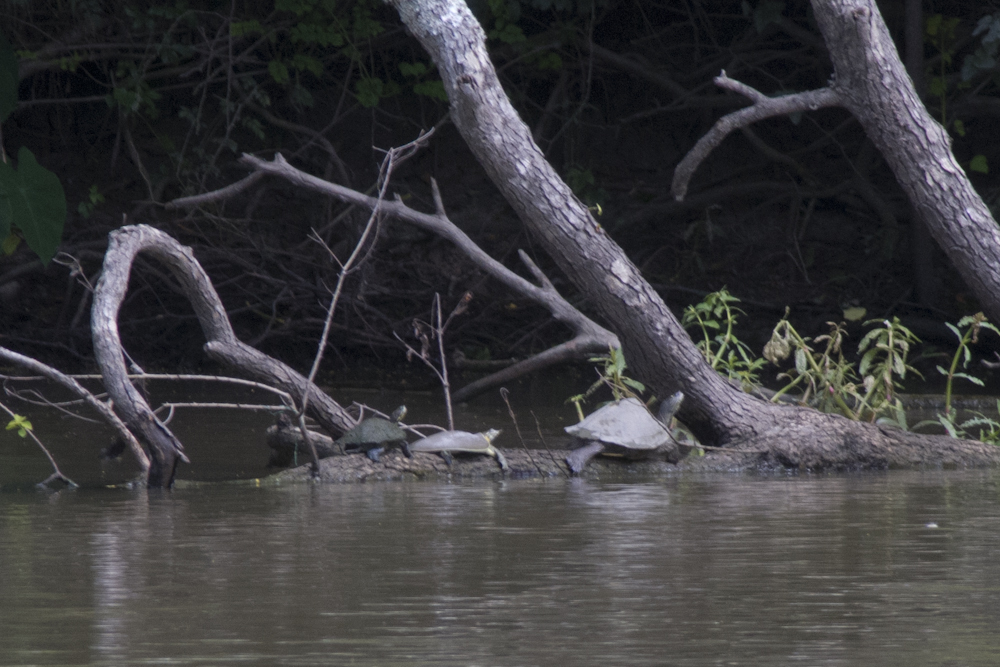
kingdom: Animalia
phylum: Chordata
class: Testudines
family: Emydidae
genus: Graptemys
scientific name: Graptemys sabinensis
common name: Sabine map turtle
